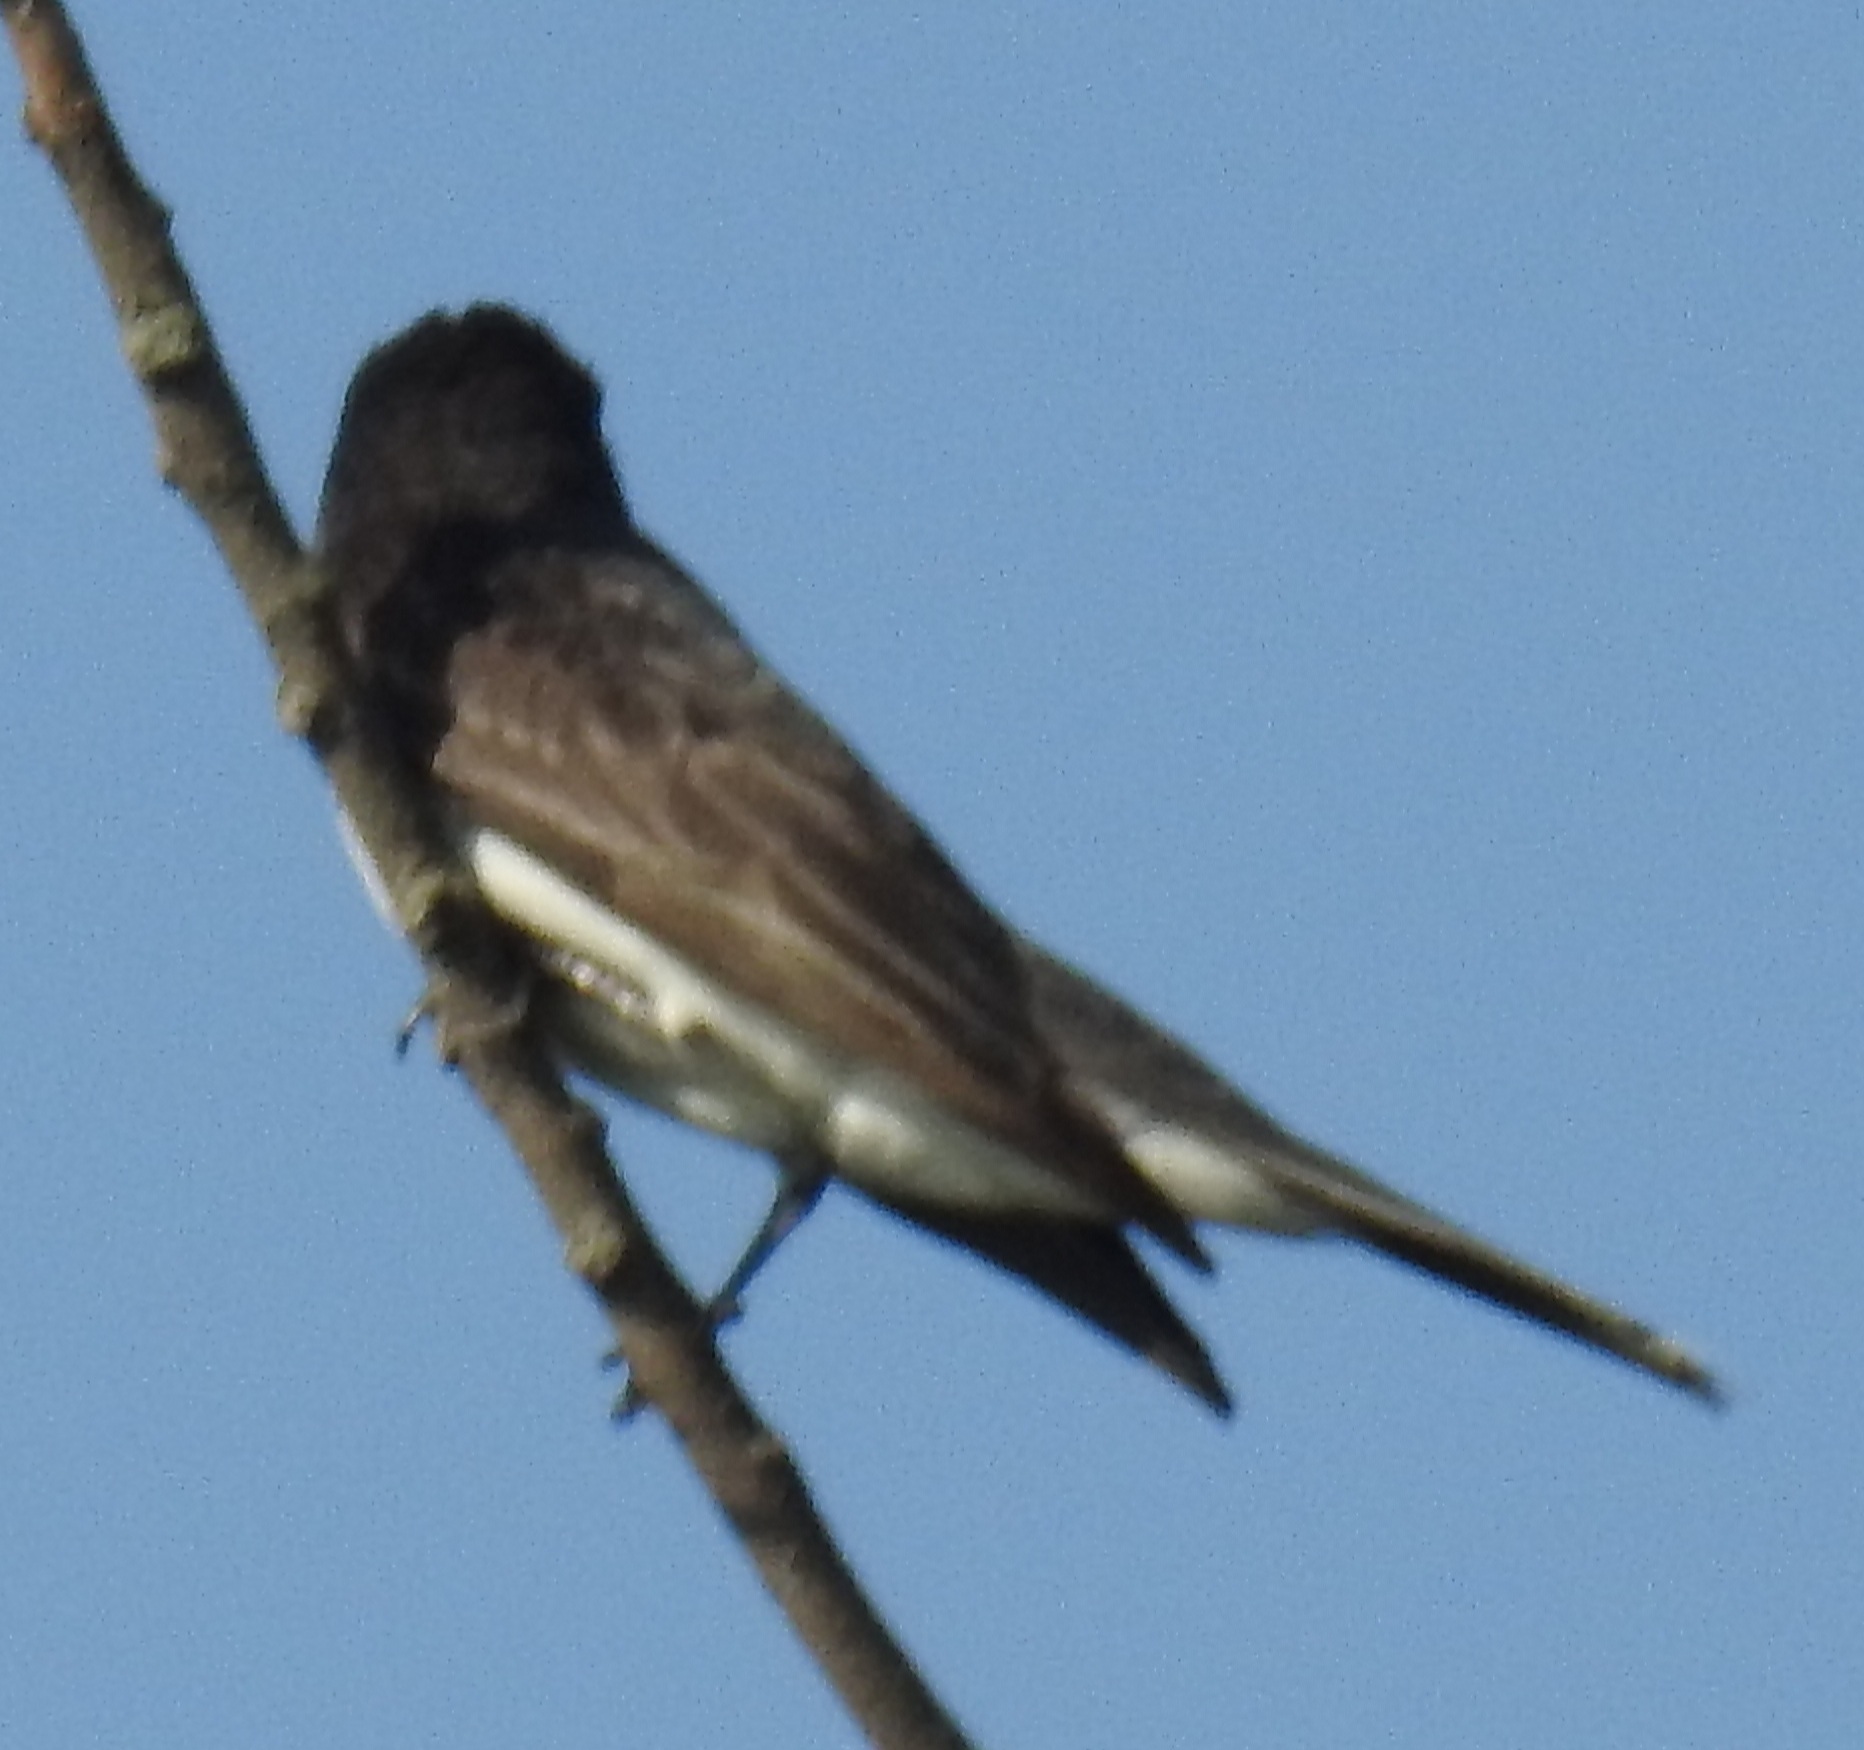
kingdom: Animalia
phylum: Chordata
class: Aves
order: Passeriformes
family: Tyrannidae
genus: Tyrannus
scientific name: Tyrannus tyrannus
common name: Eastern kingbird
